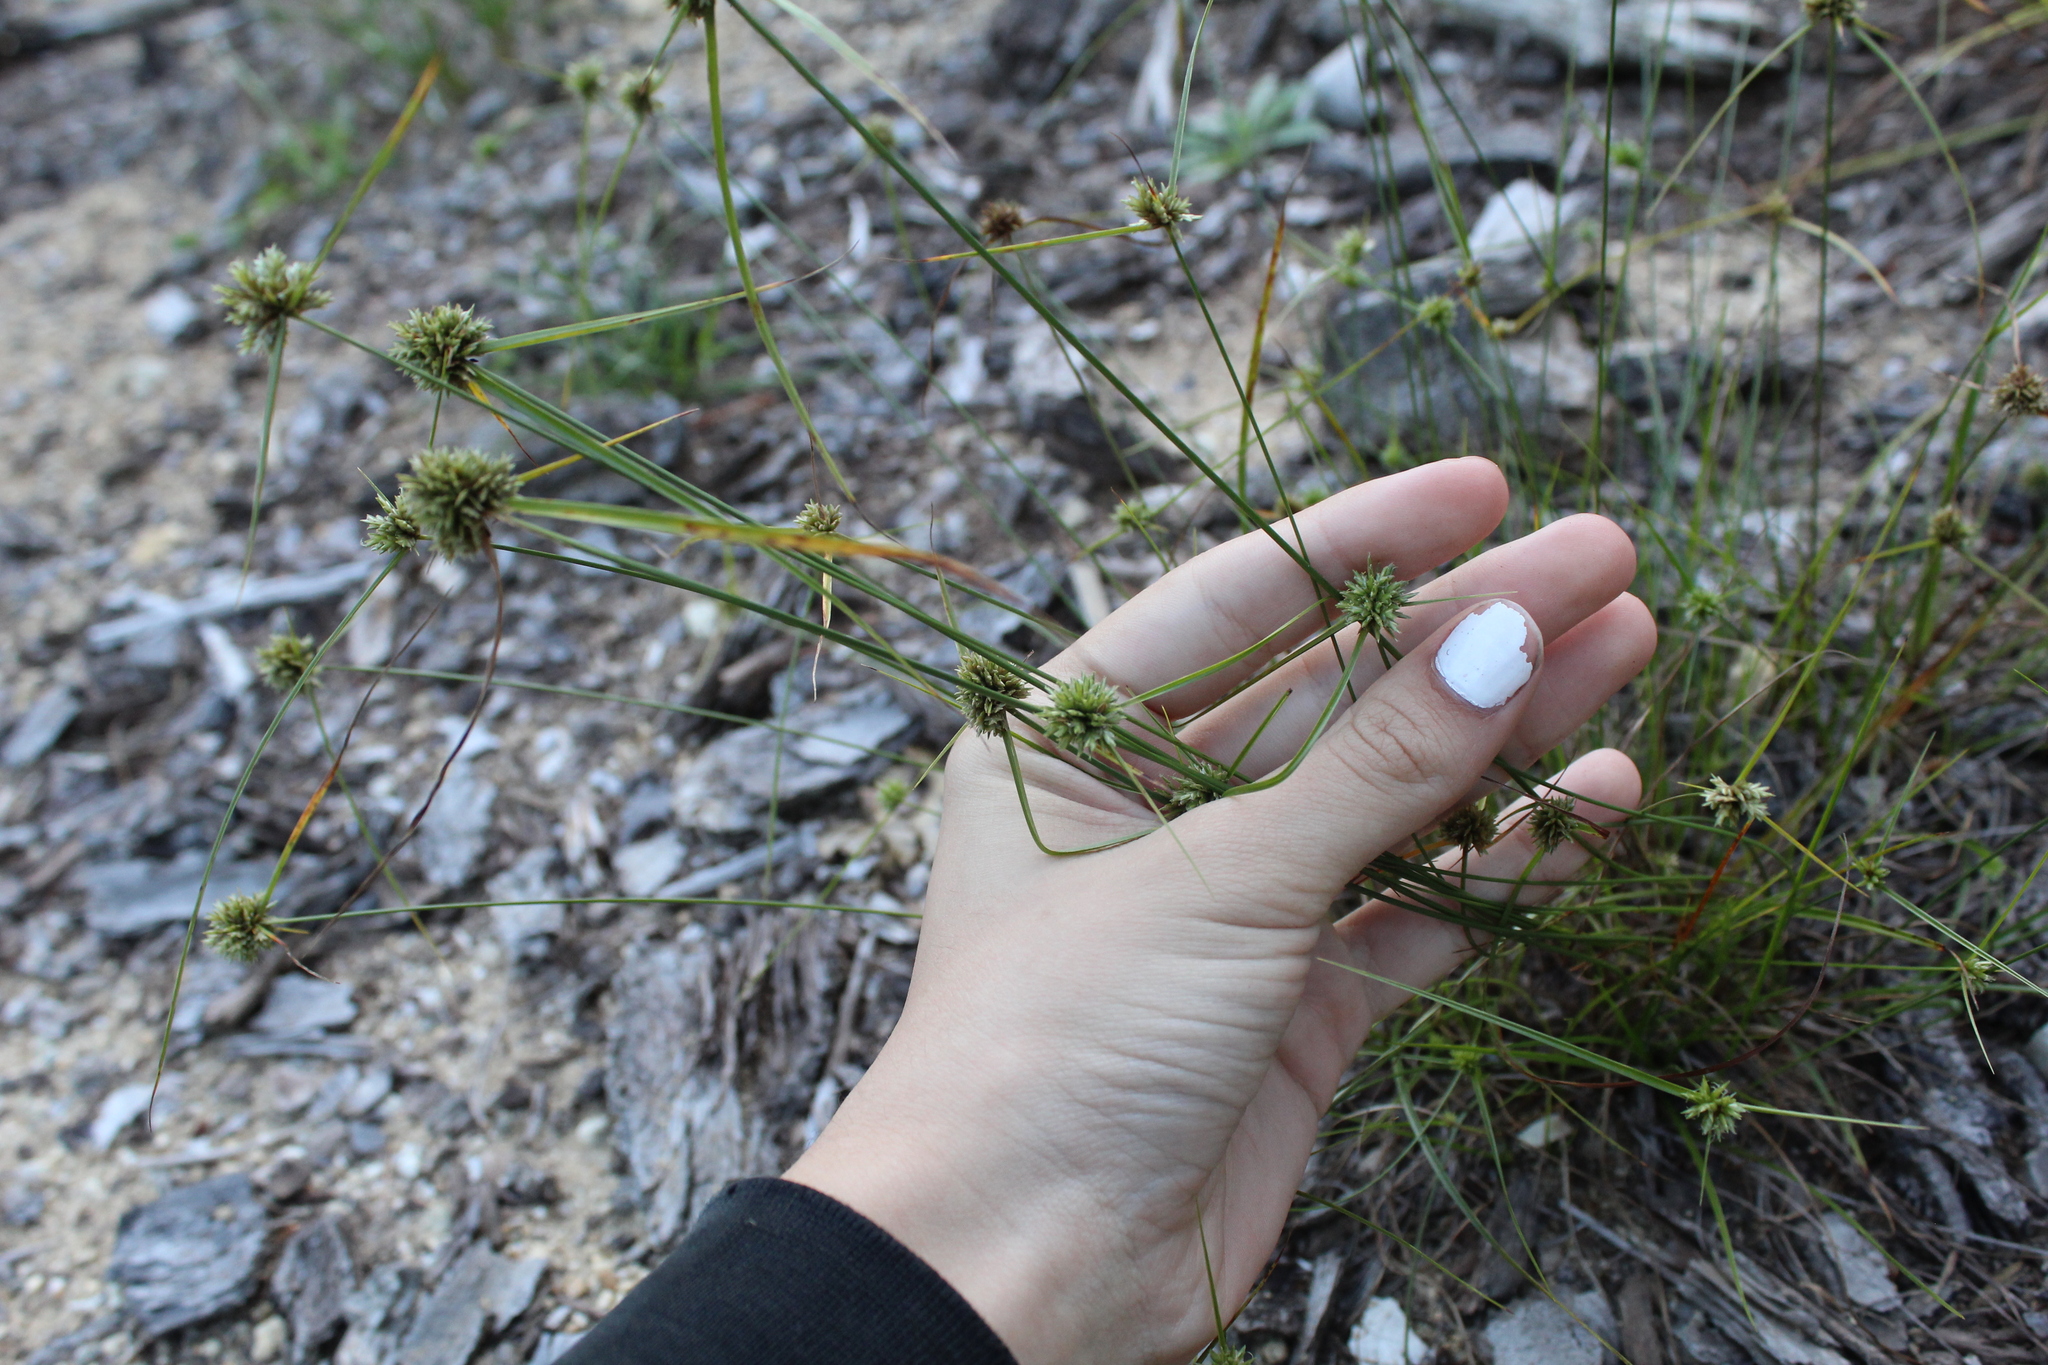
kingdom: Plantae
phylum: Tracheophyta
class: Liliopsida
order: Poales
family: Cyperaceae
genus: Cyperus
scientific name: Cyperus lupulinus
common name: Great plains flatsedge
